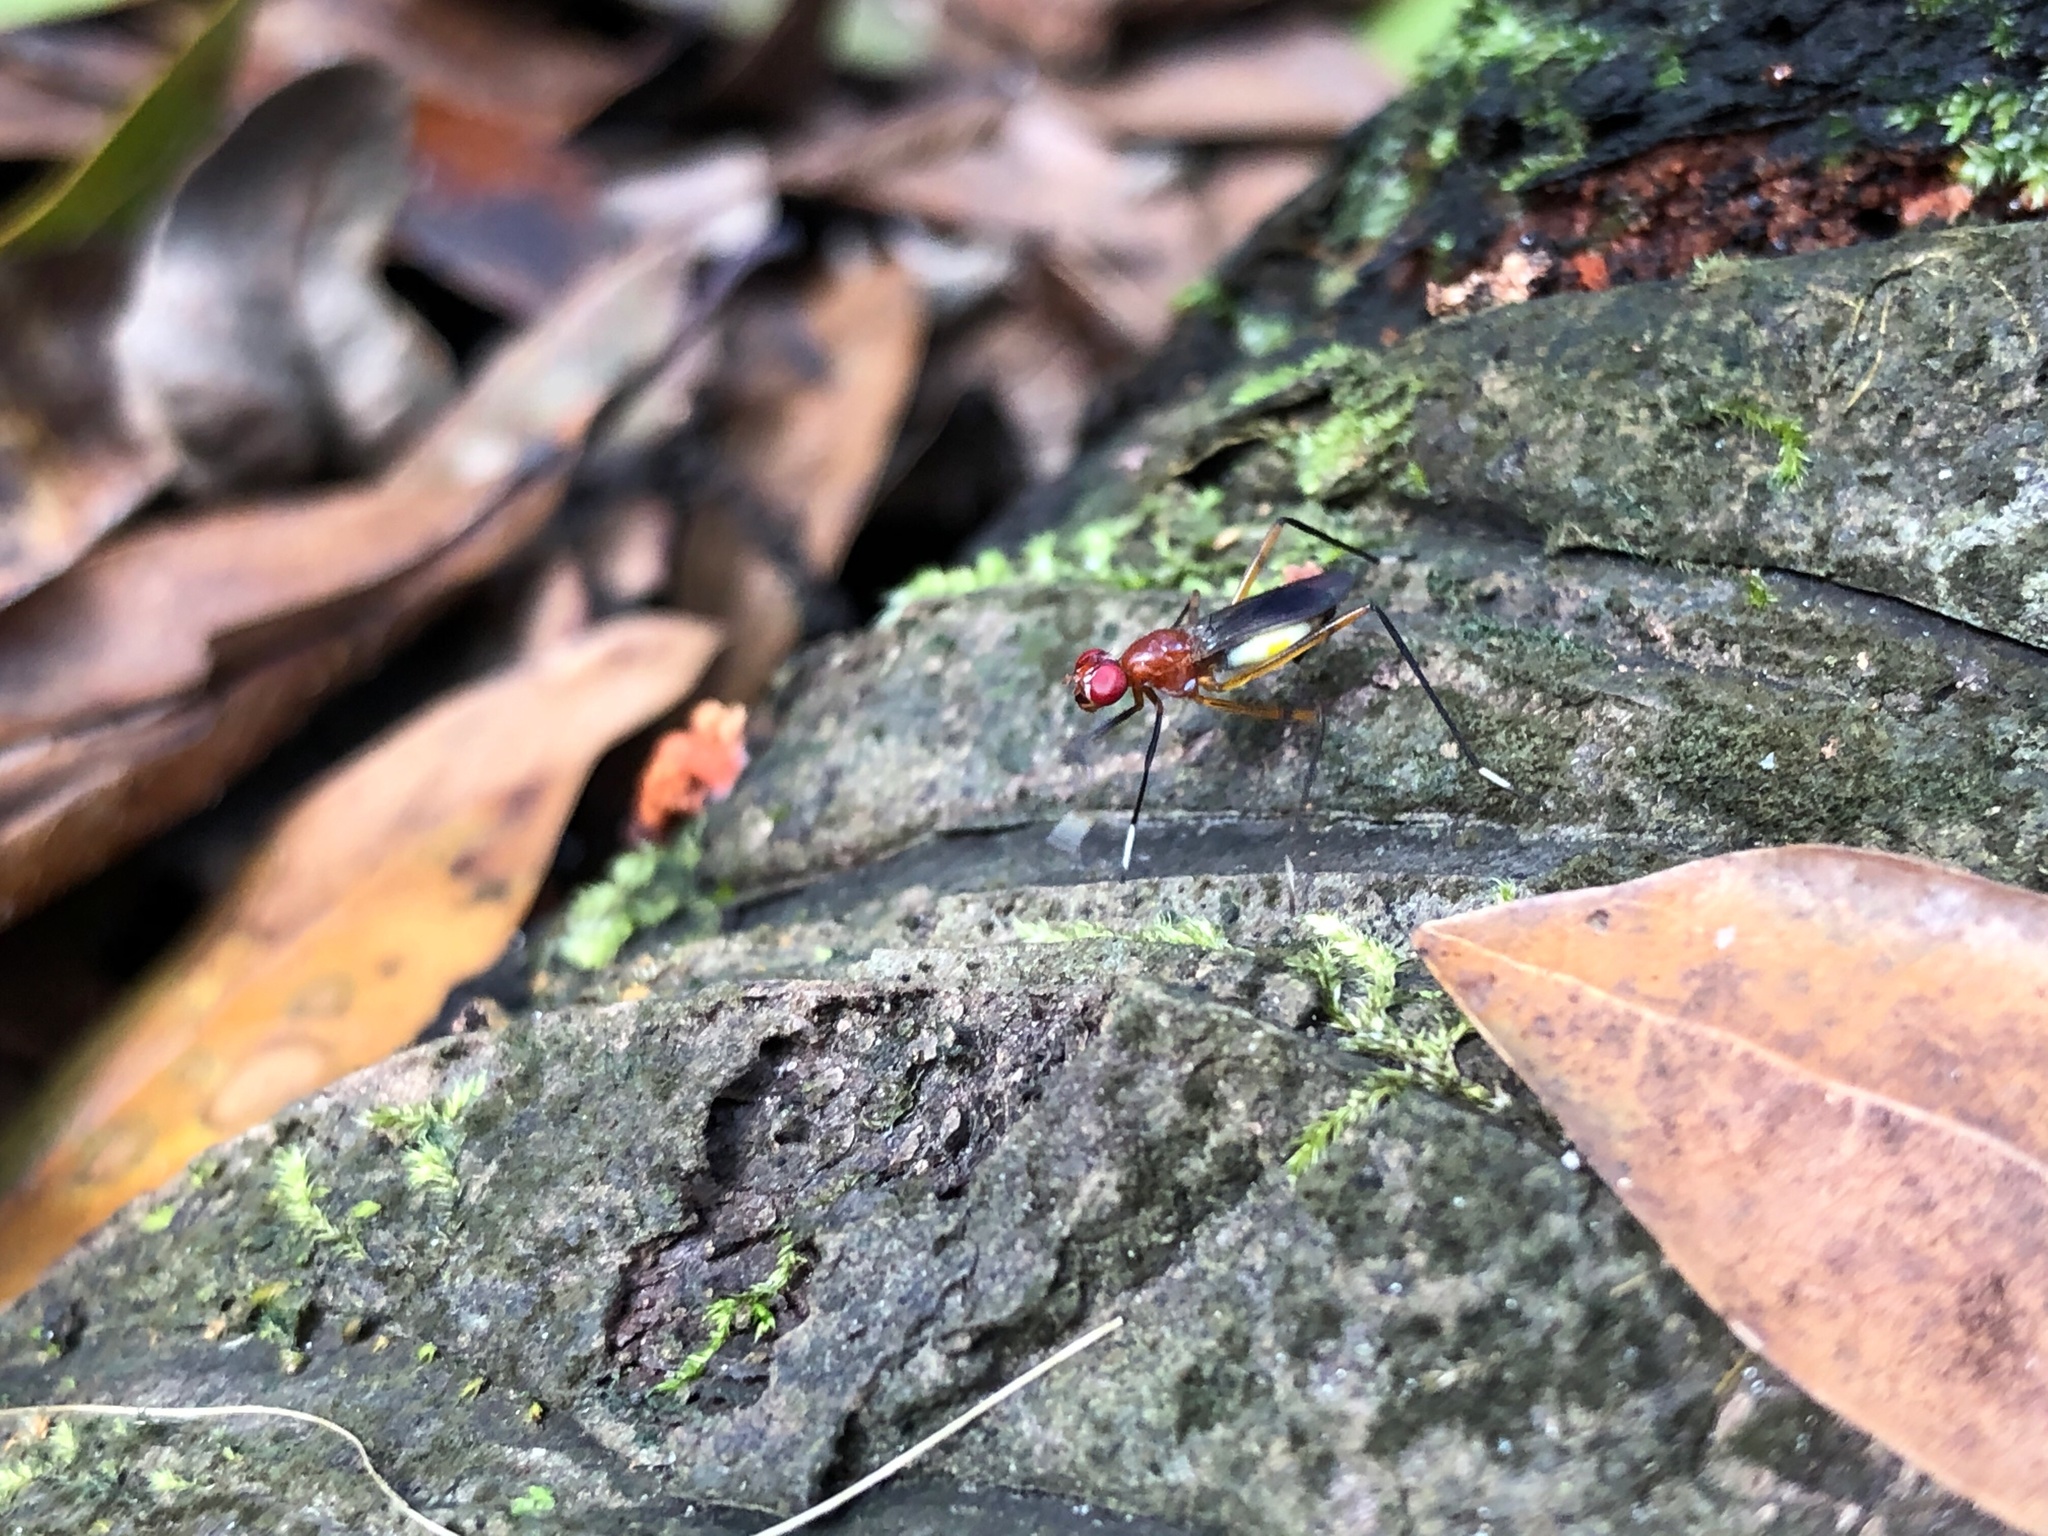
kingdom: Animalia
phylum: Arthropoda
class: Insecta
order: Diptera
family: Micropezidae
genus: Grallipeza
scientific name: Grallipeza nebulosa
